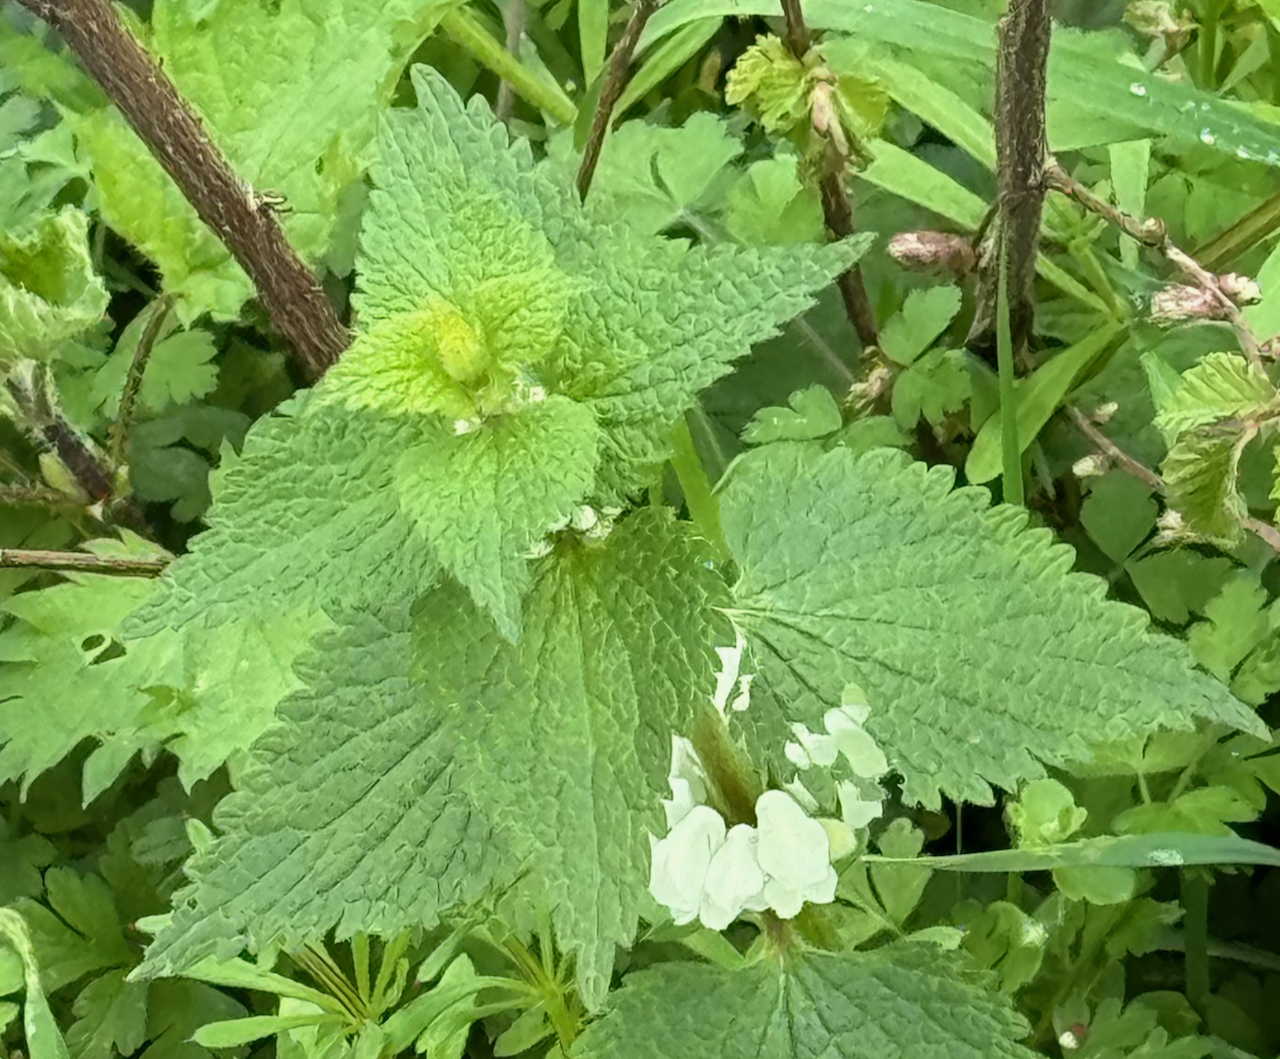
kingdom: Plantae
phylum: Tracheophyta
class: Magnoliopsida
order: Lamiales
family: Lamiaceae
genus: Lamium
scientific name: Lamium album
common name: White dead-nettle
